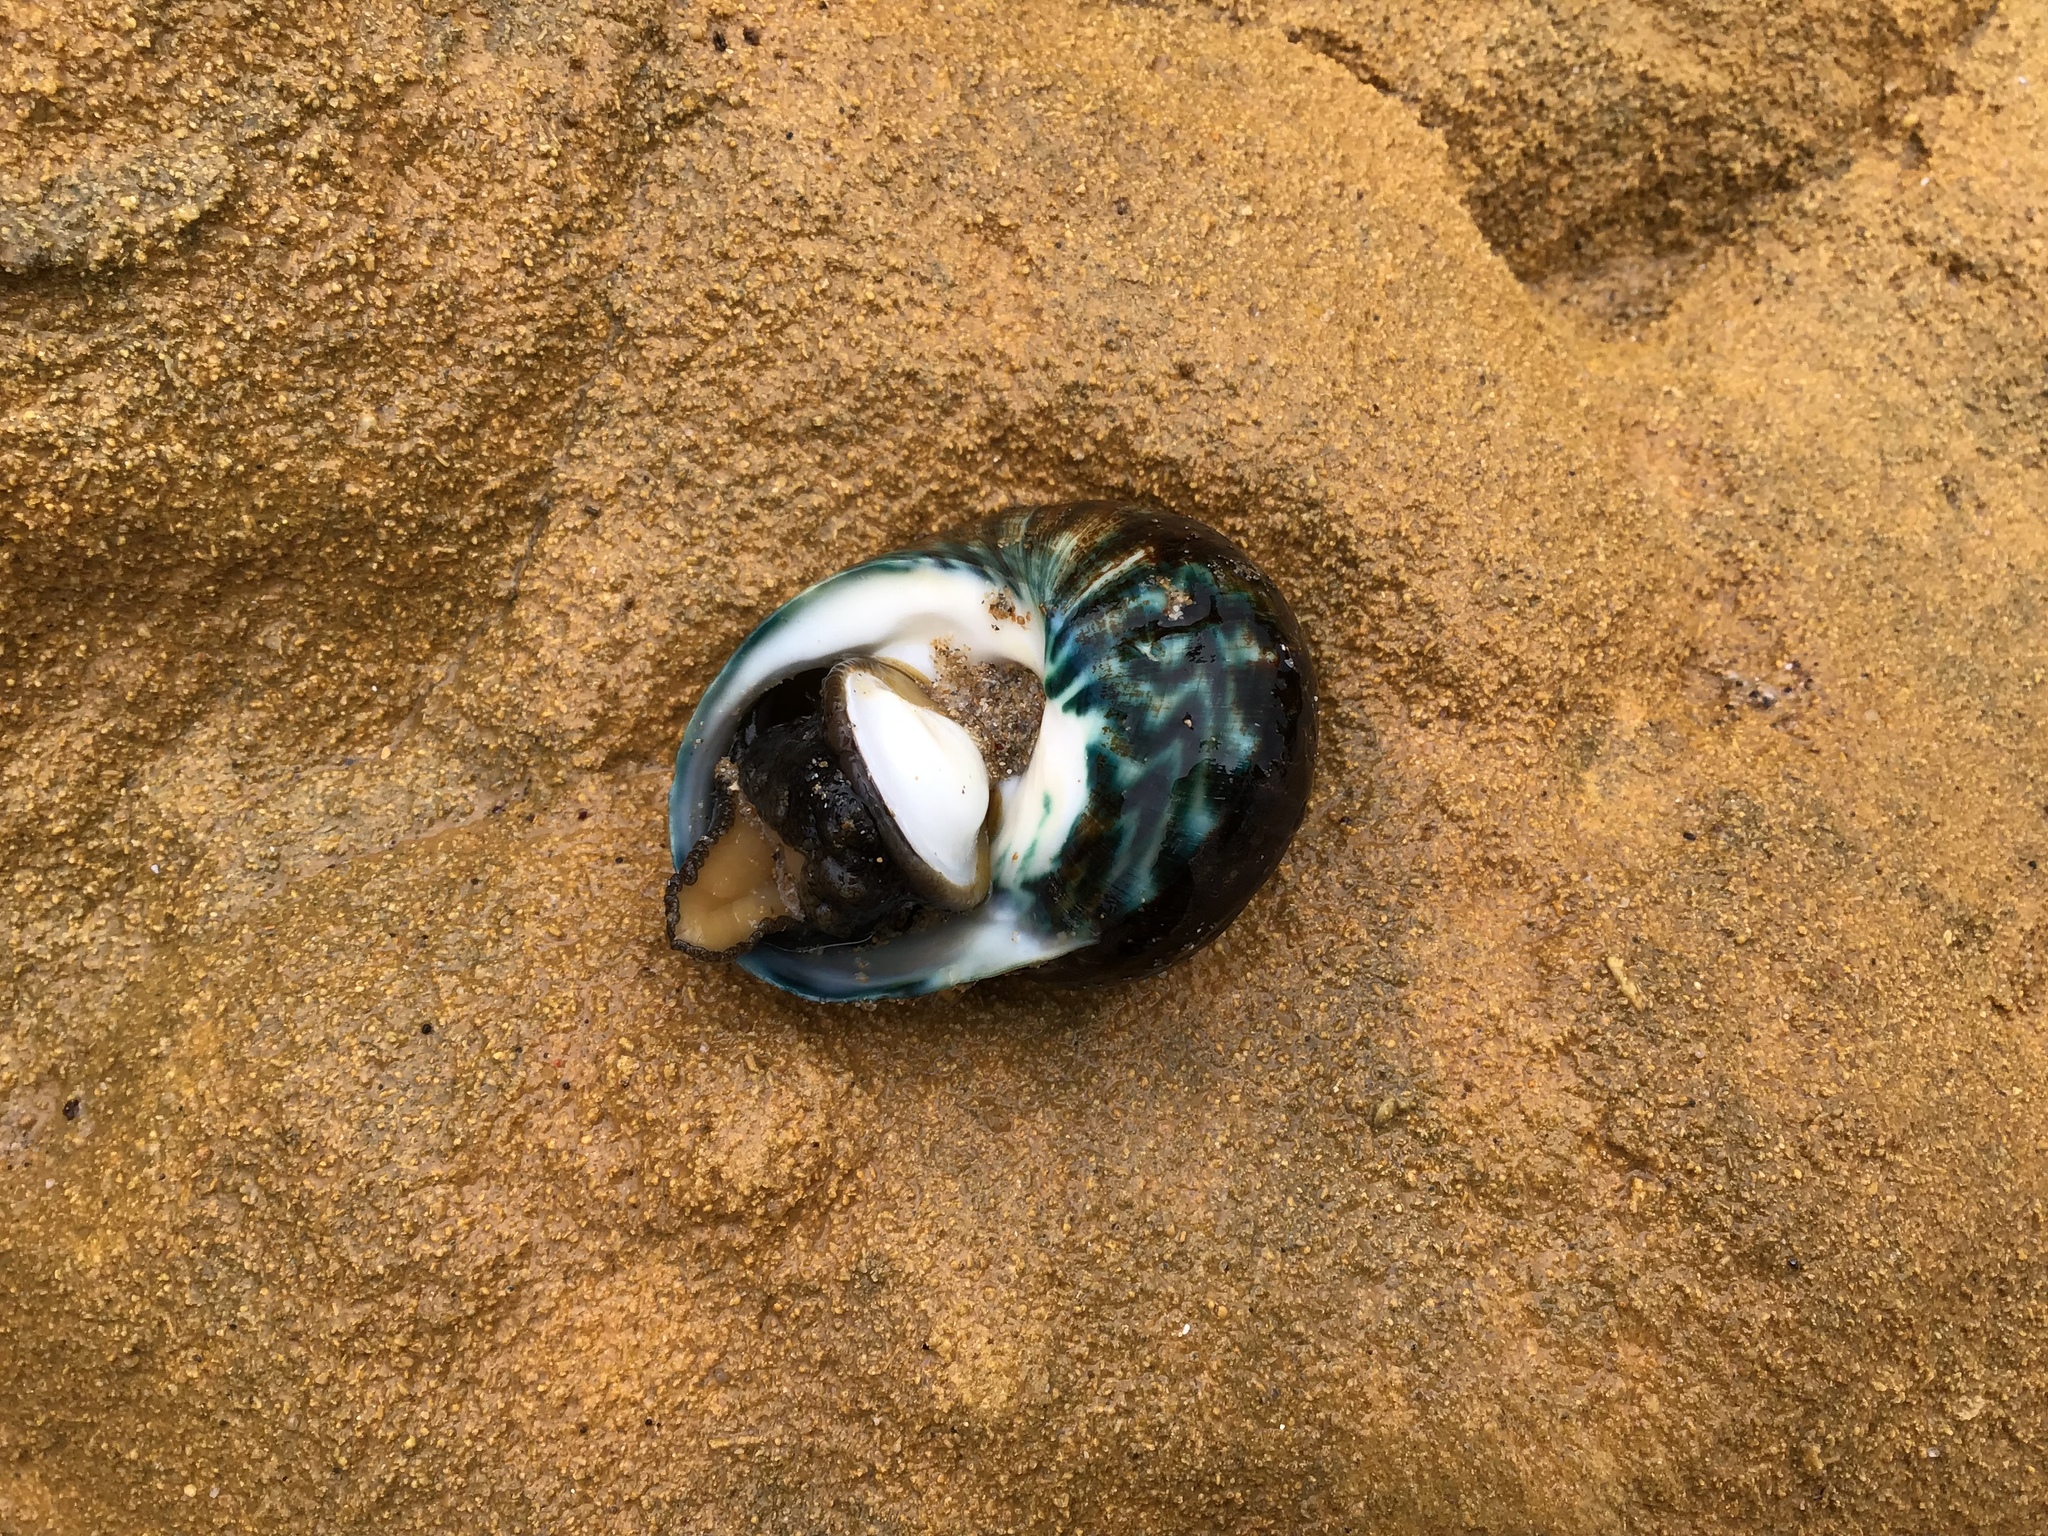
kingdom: Animalia
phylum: Mollusca
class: Gastropoda
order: Trochida
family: Turbinidae
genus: Lunella
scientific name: Lunella undulata
